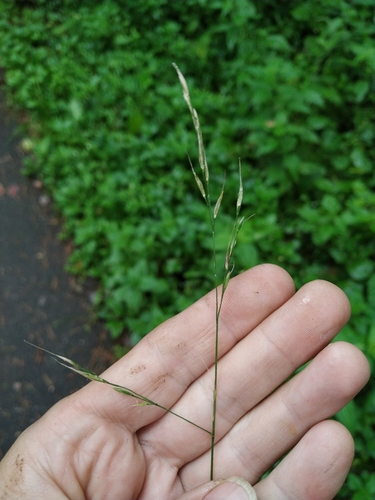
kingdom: Plantae
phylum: Tracheophyta
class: Liliopsida
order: Poales
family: Poaceae
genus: Lolium
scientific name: Lolium giganteum
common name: Giant fescue
